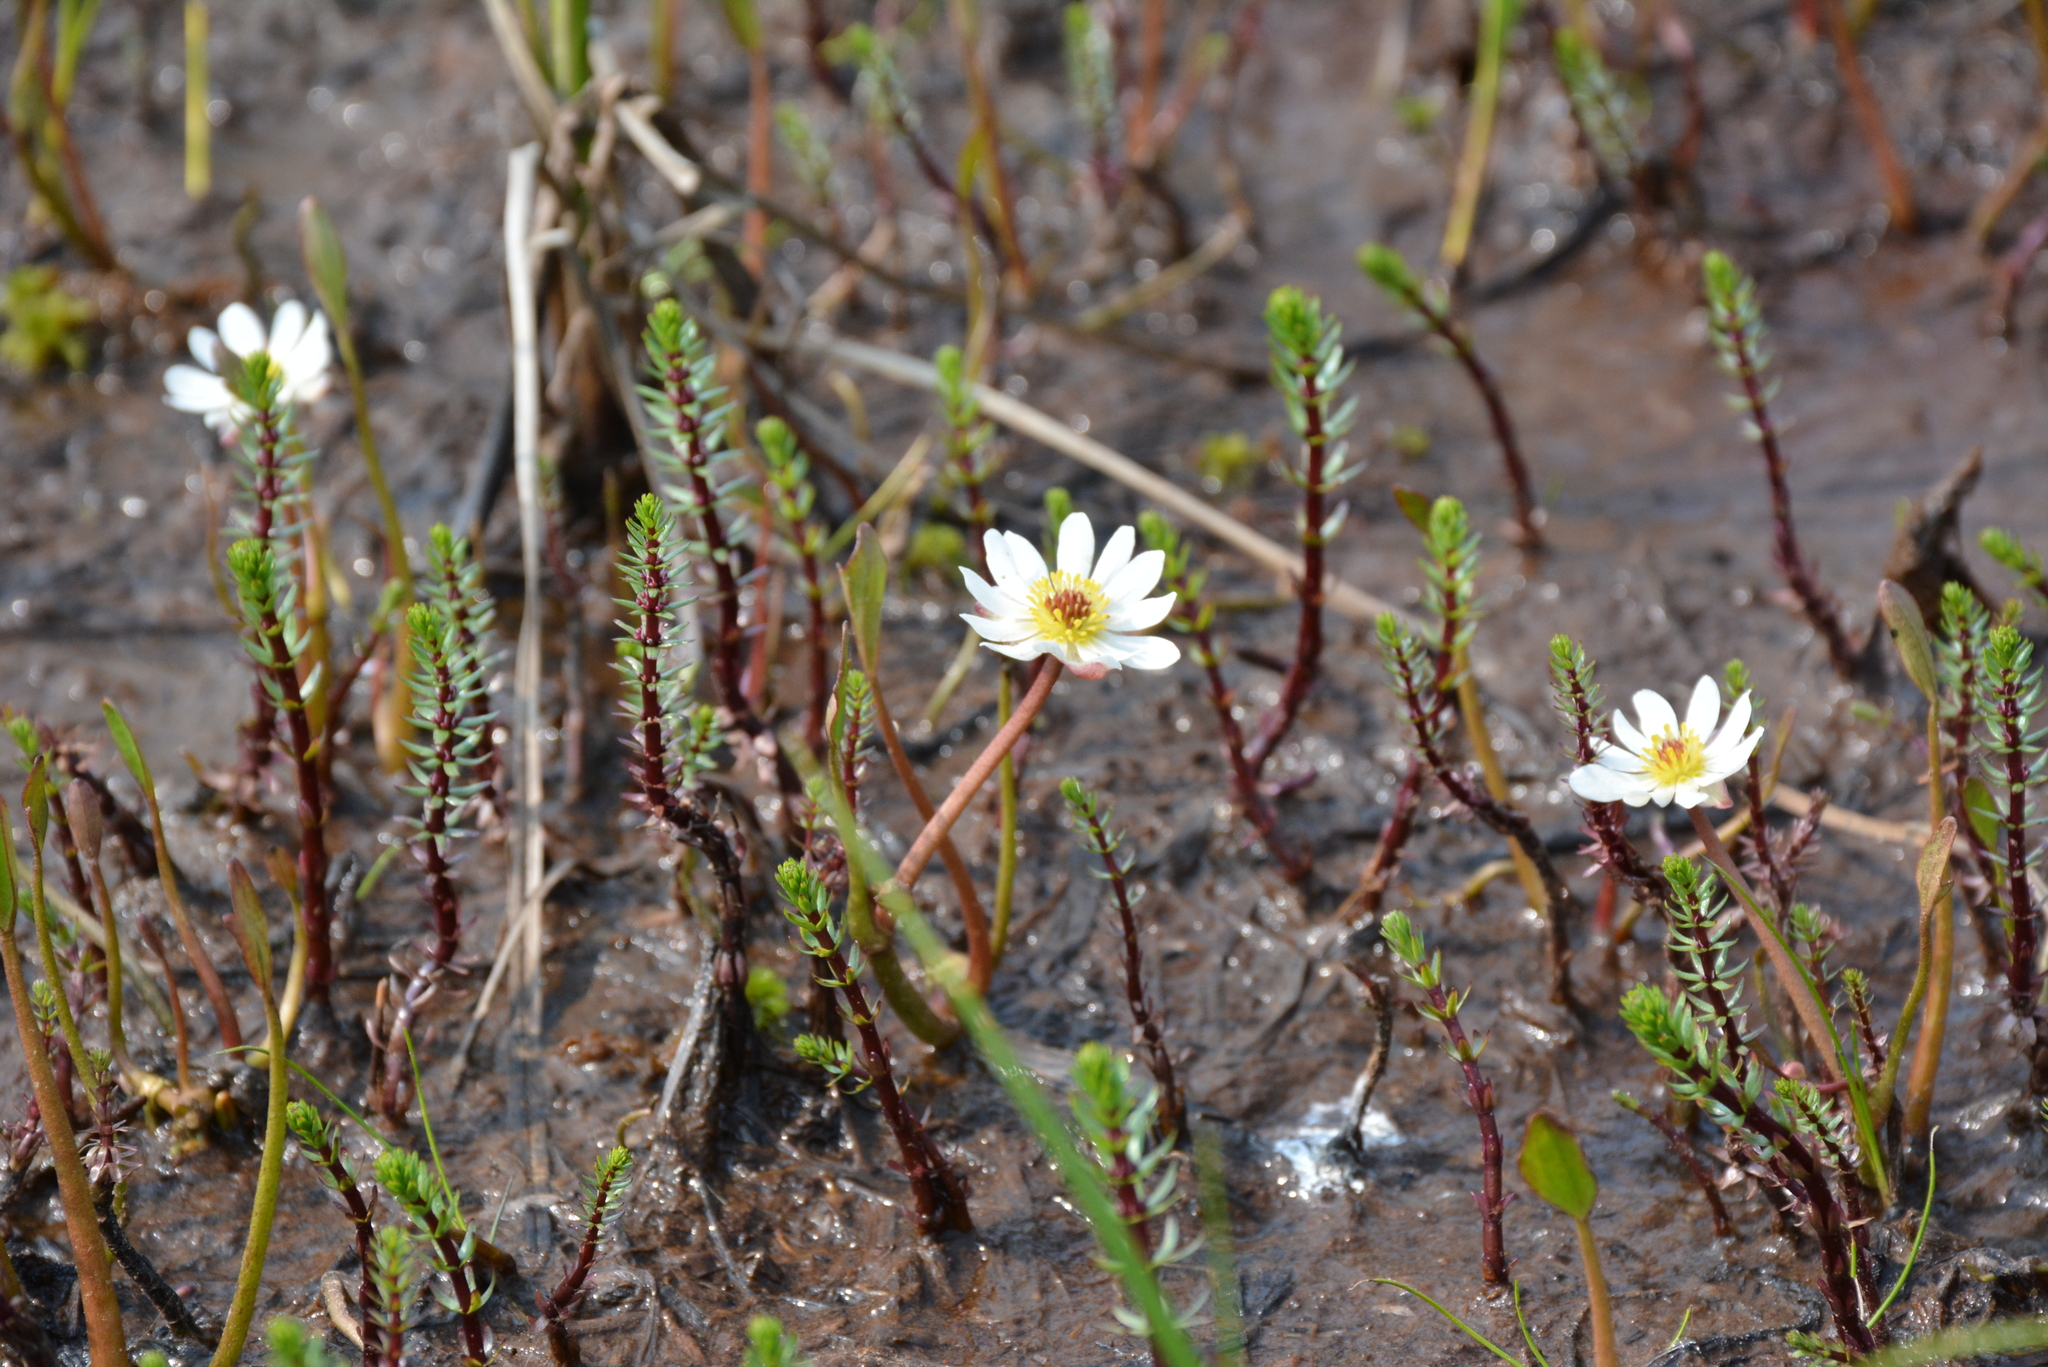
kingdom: Plantae
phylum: Tracheophyta
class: Magnoliopsida
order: Ranunculales
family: Ranunculaceae
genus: Coptidium
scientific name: Coptidium pallasii
